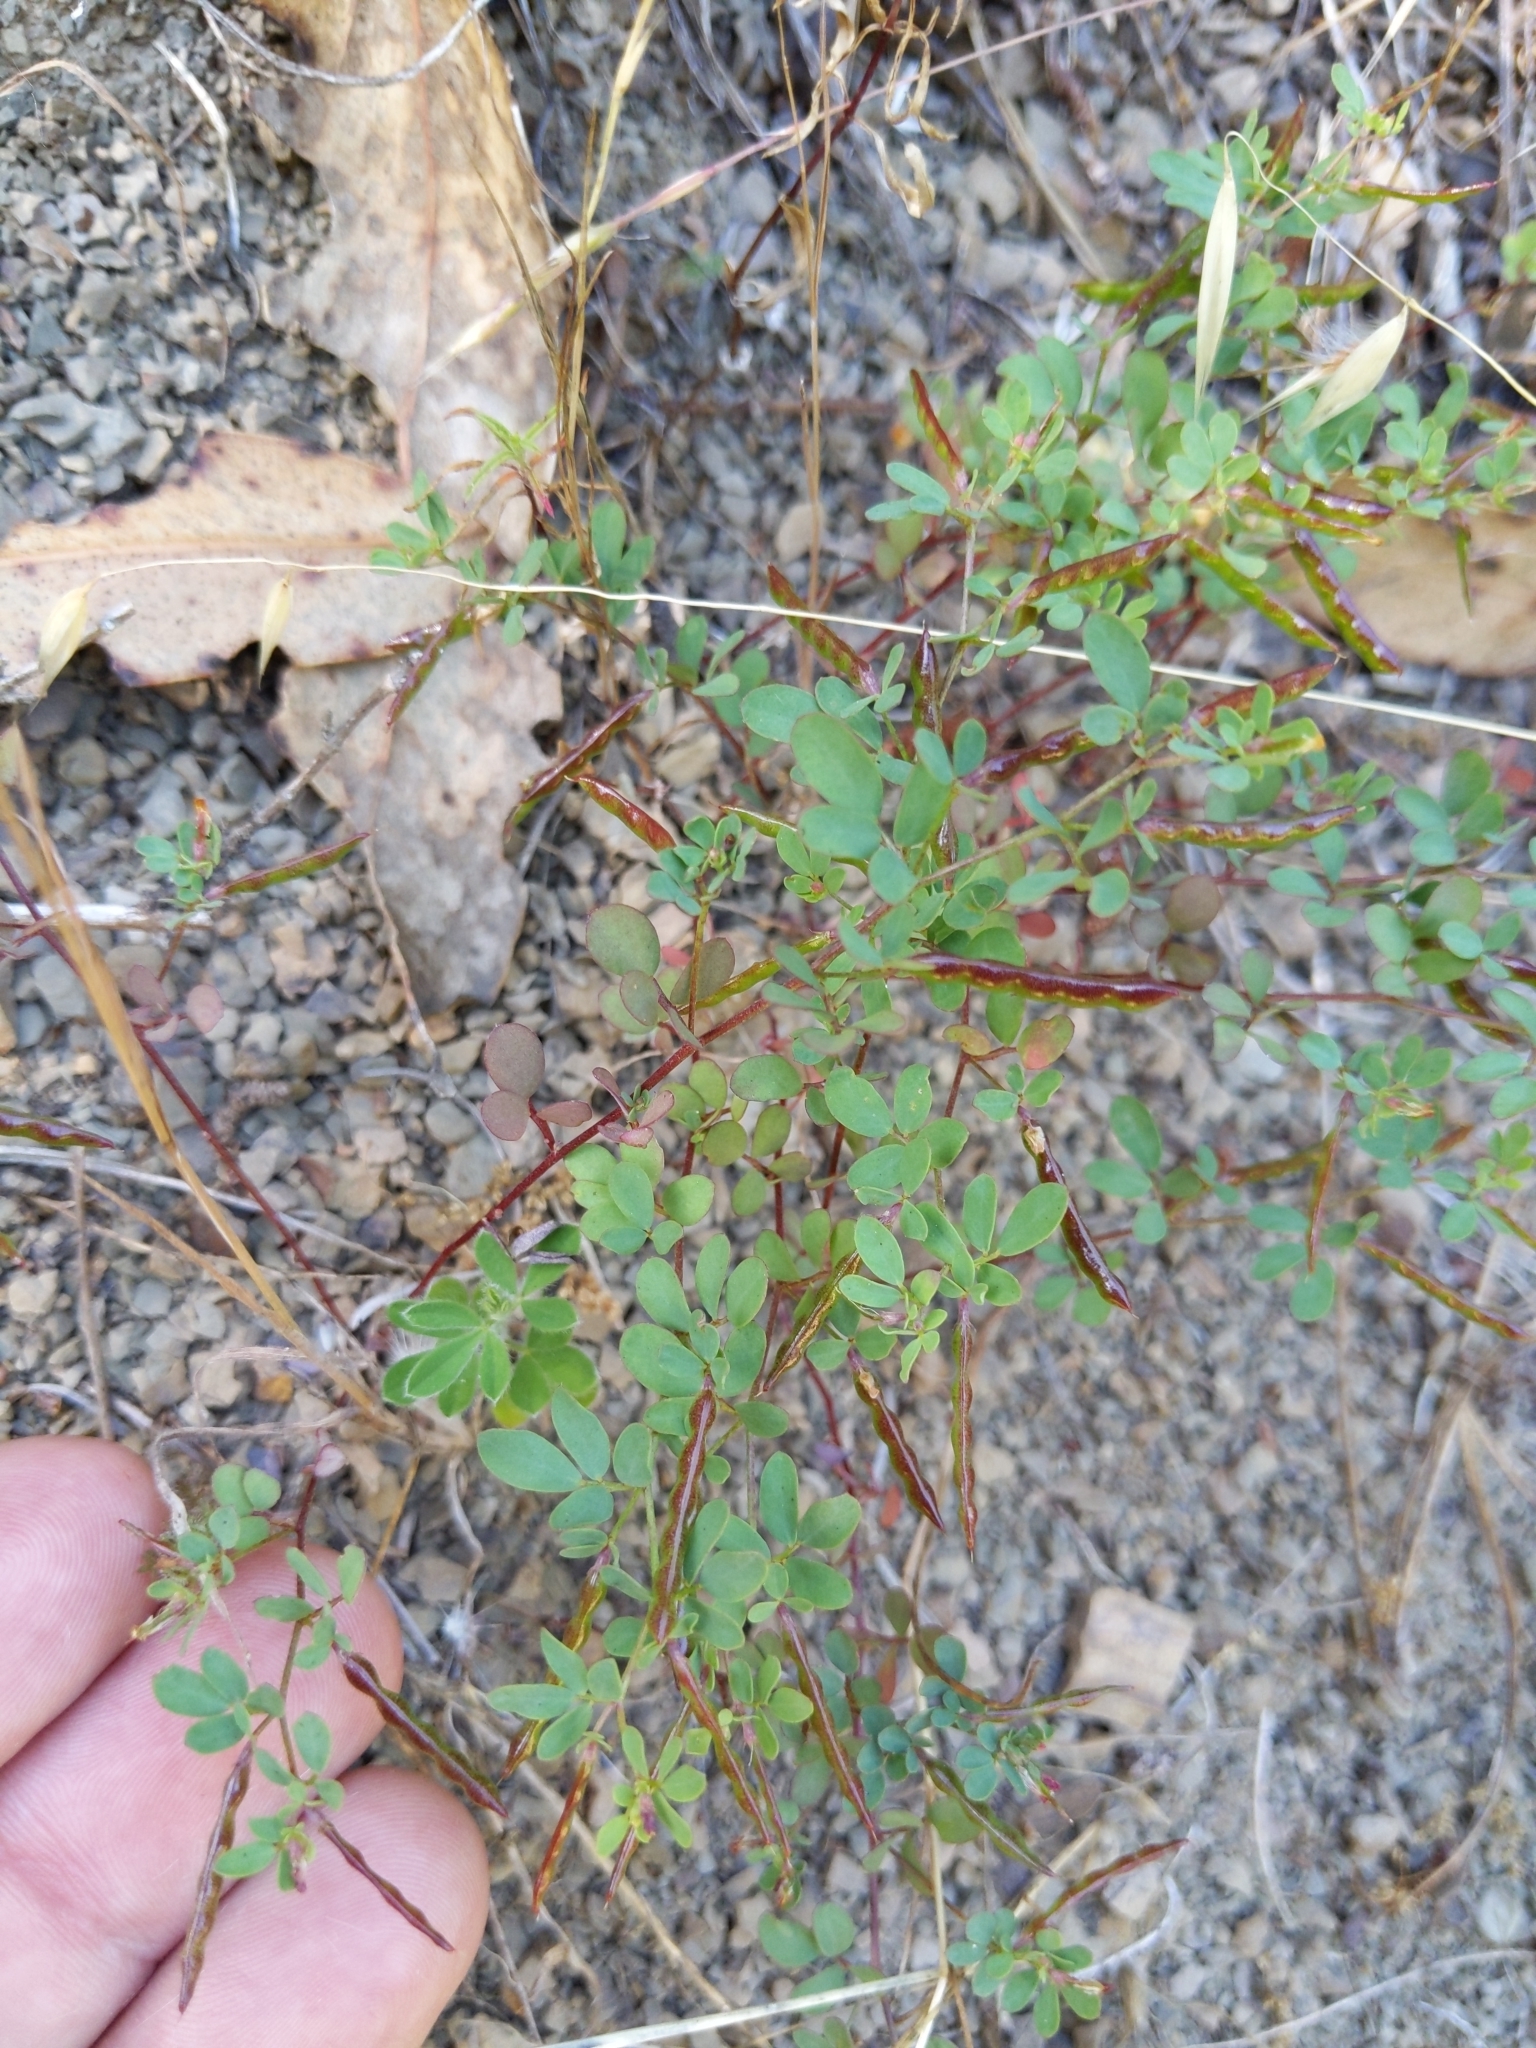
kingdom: Plantae
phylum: Tracheophyta
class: Magnoliopsida
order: Fabales
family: Fabaceae
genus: Acmispon
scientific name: Acmispon parviflorus
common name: Desert deer-vetch
